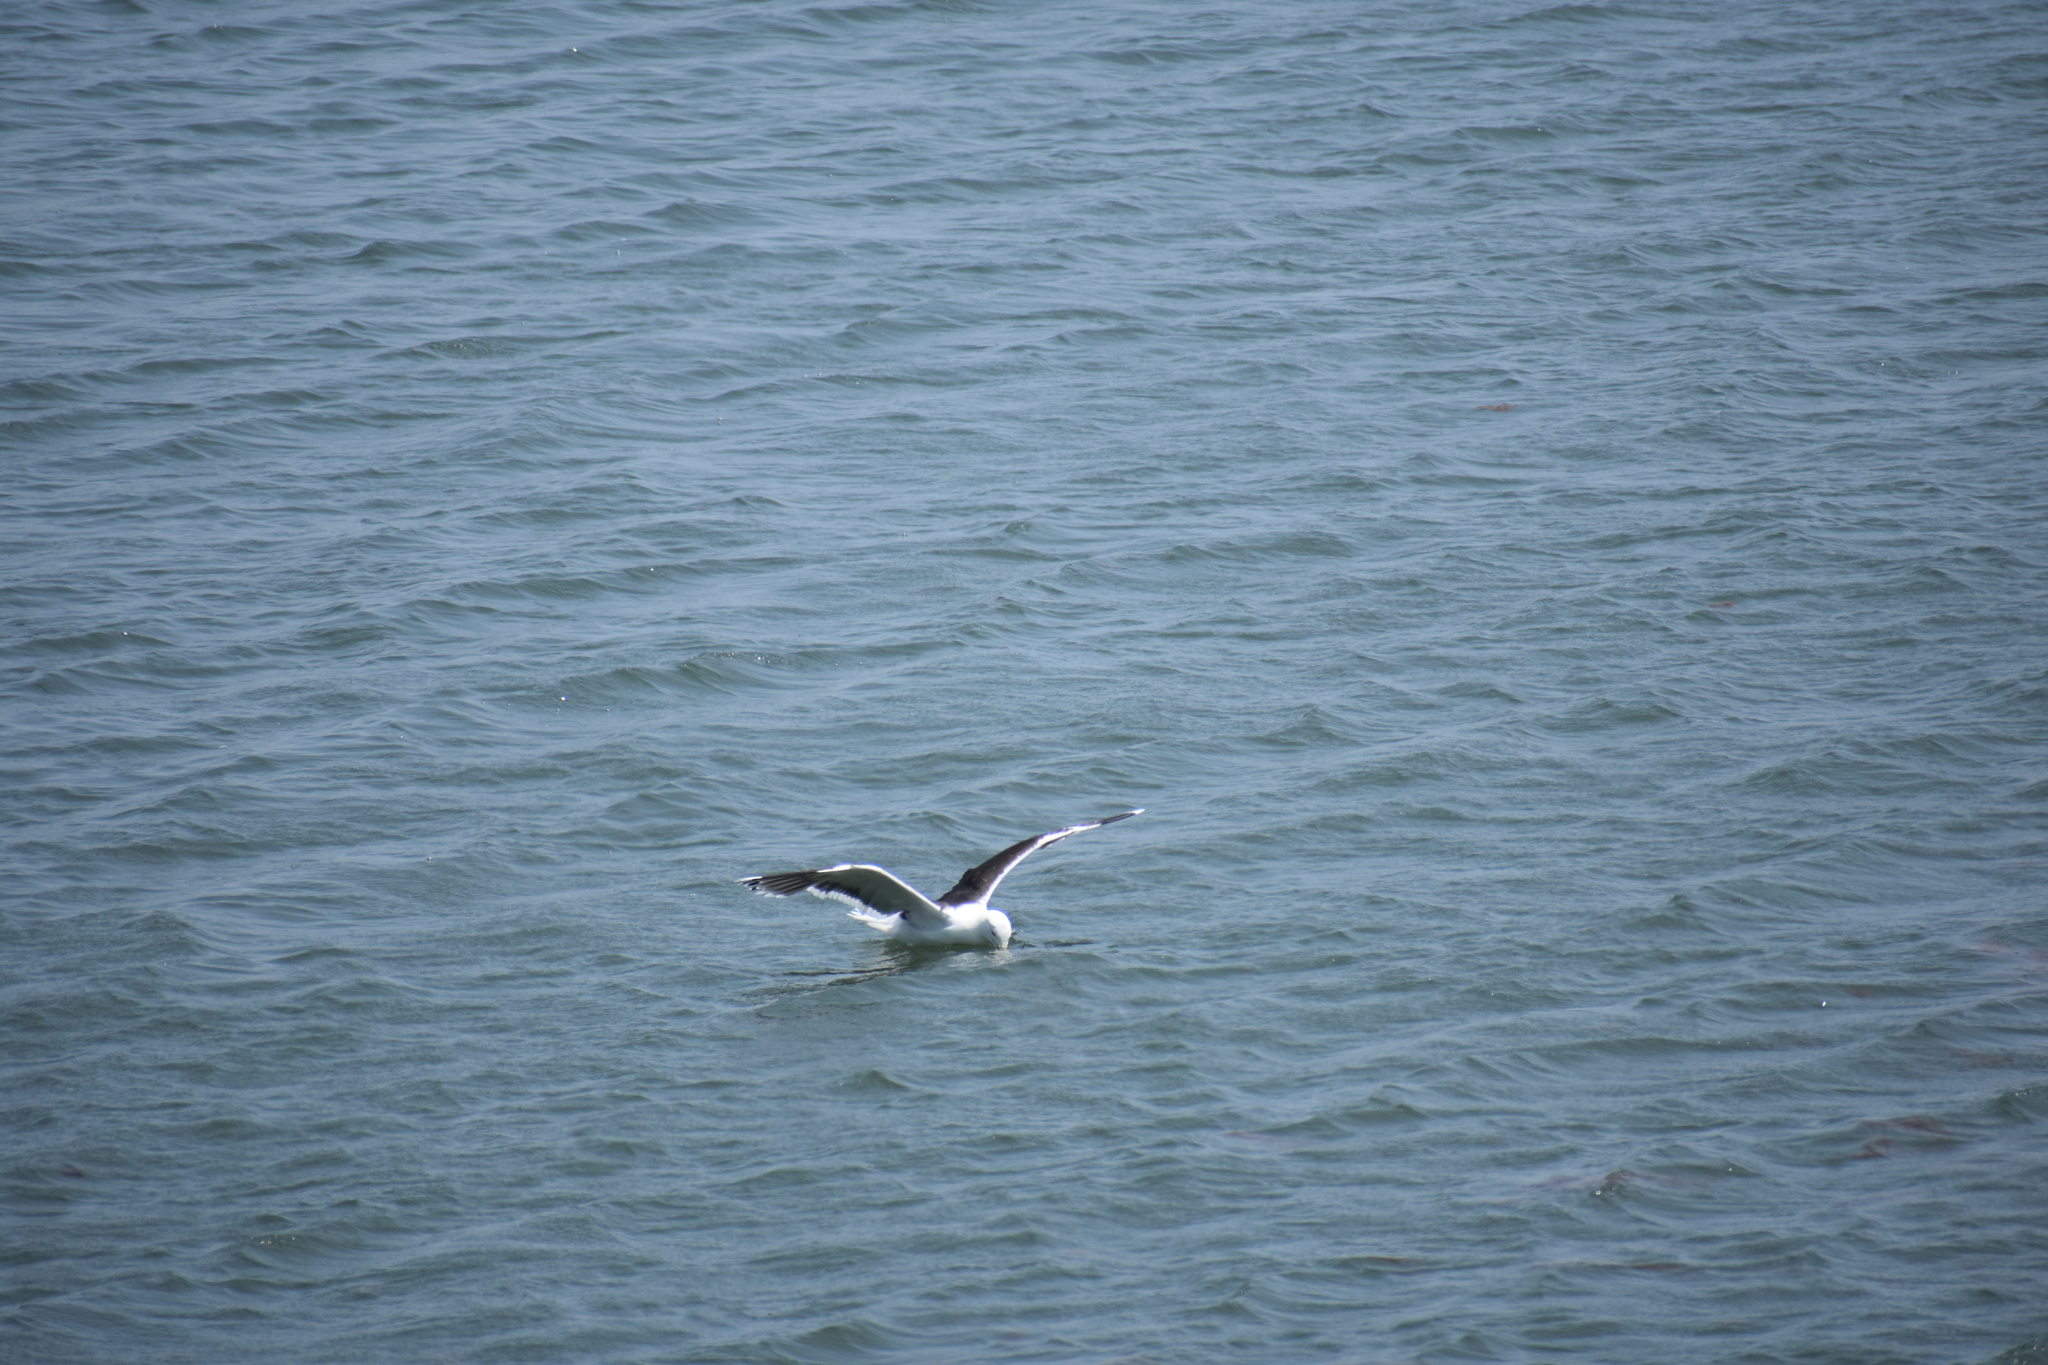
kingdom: Animalia
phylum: Chordata
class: Aves
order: Charadriiformes
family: Laridae
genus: Larus
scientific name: Larus marinus
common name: Great black-backed gull
